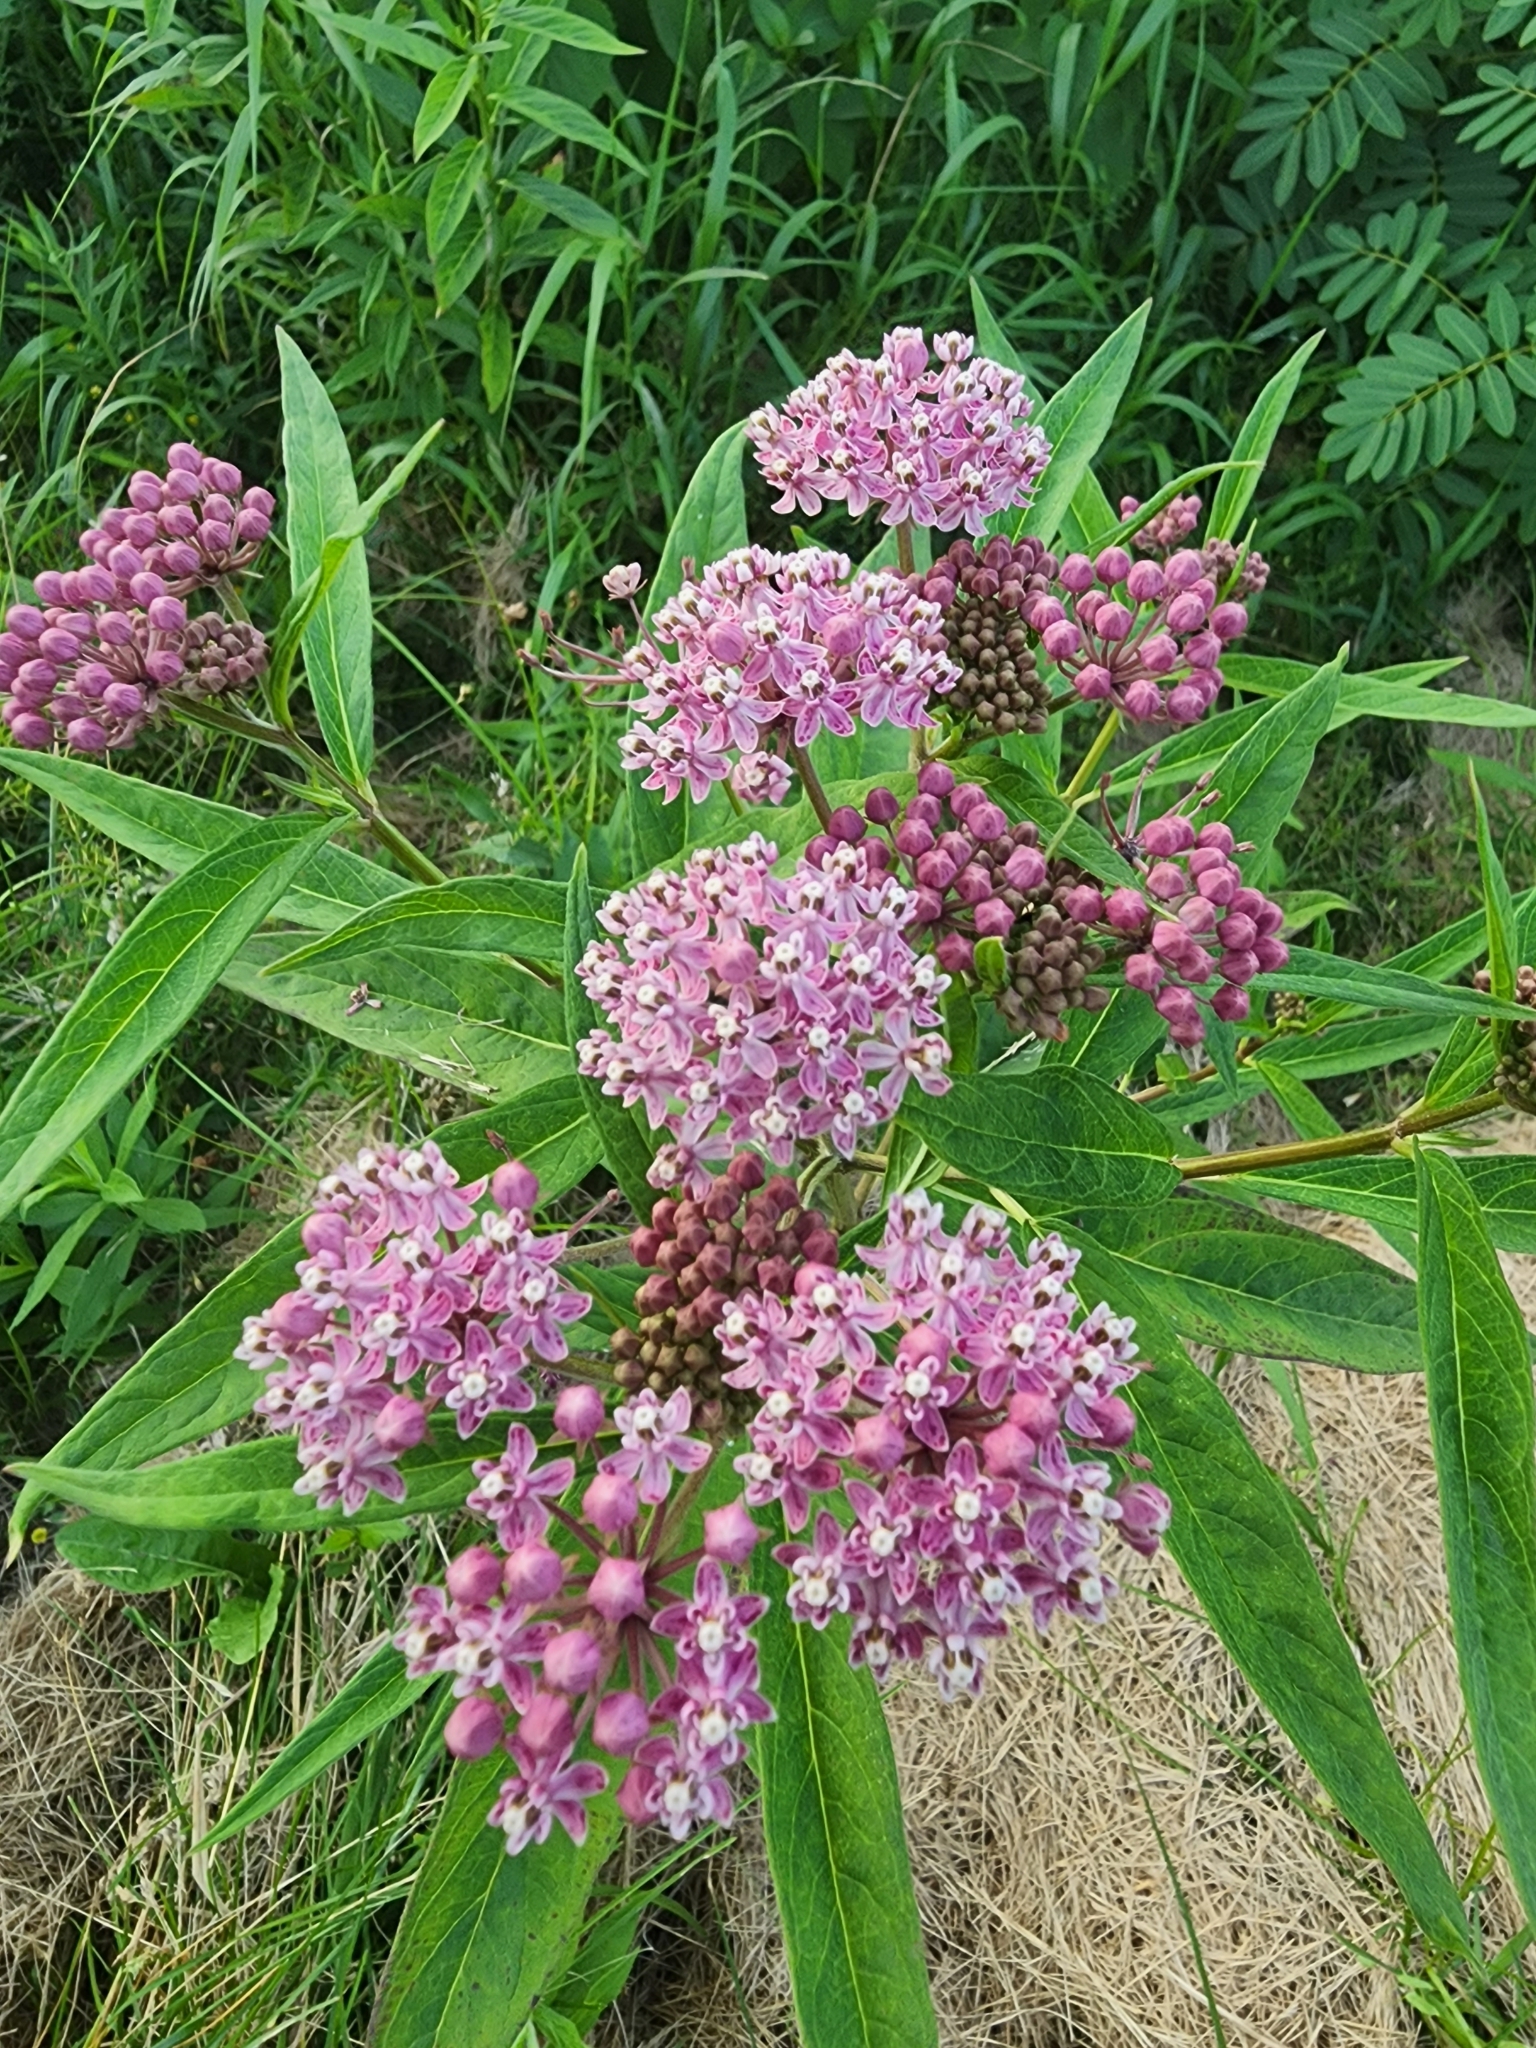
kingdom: Plantae
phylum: Tracheophyta
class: Magnoliopsida
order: Gentianales
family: Apocynaceae
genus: Asclepias
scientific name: Asclepias incarnata
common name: Swamp milkweed
